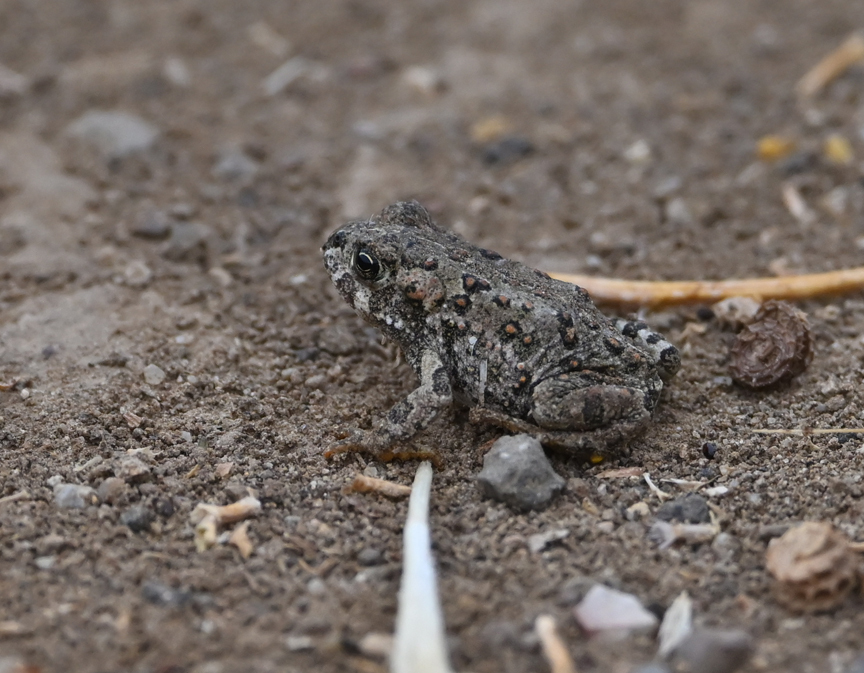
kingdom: Animalia
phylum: Chordata
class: Amphibia
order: Anura
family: Bufonidae
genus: Anaxyrus
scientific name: Anaxyrus boreas
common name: Western toad
